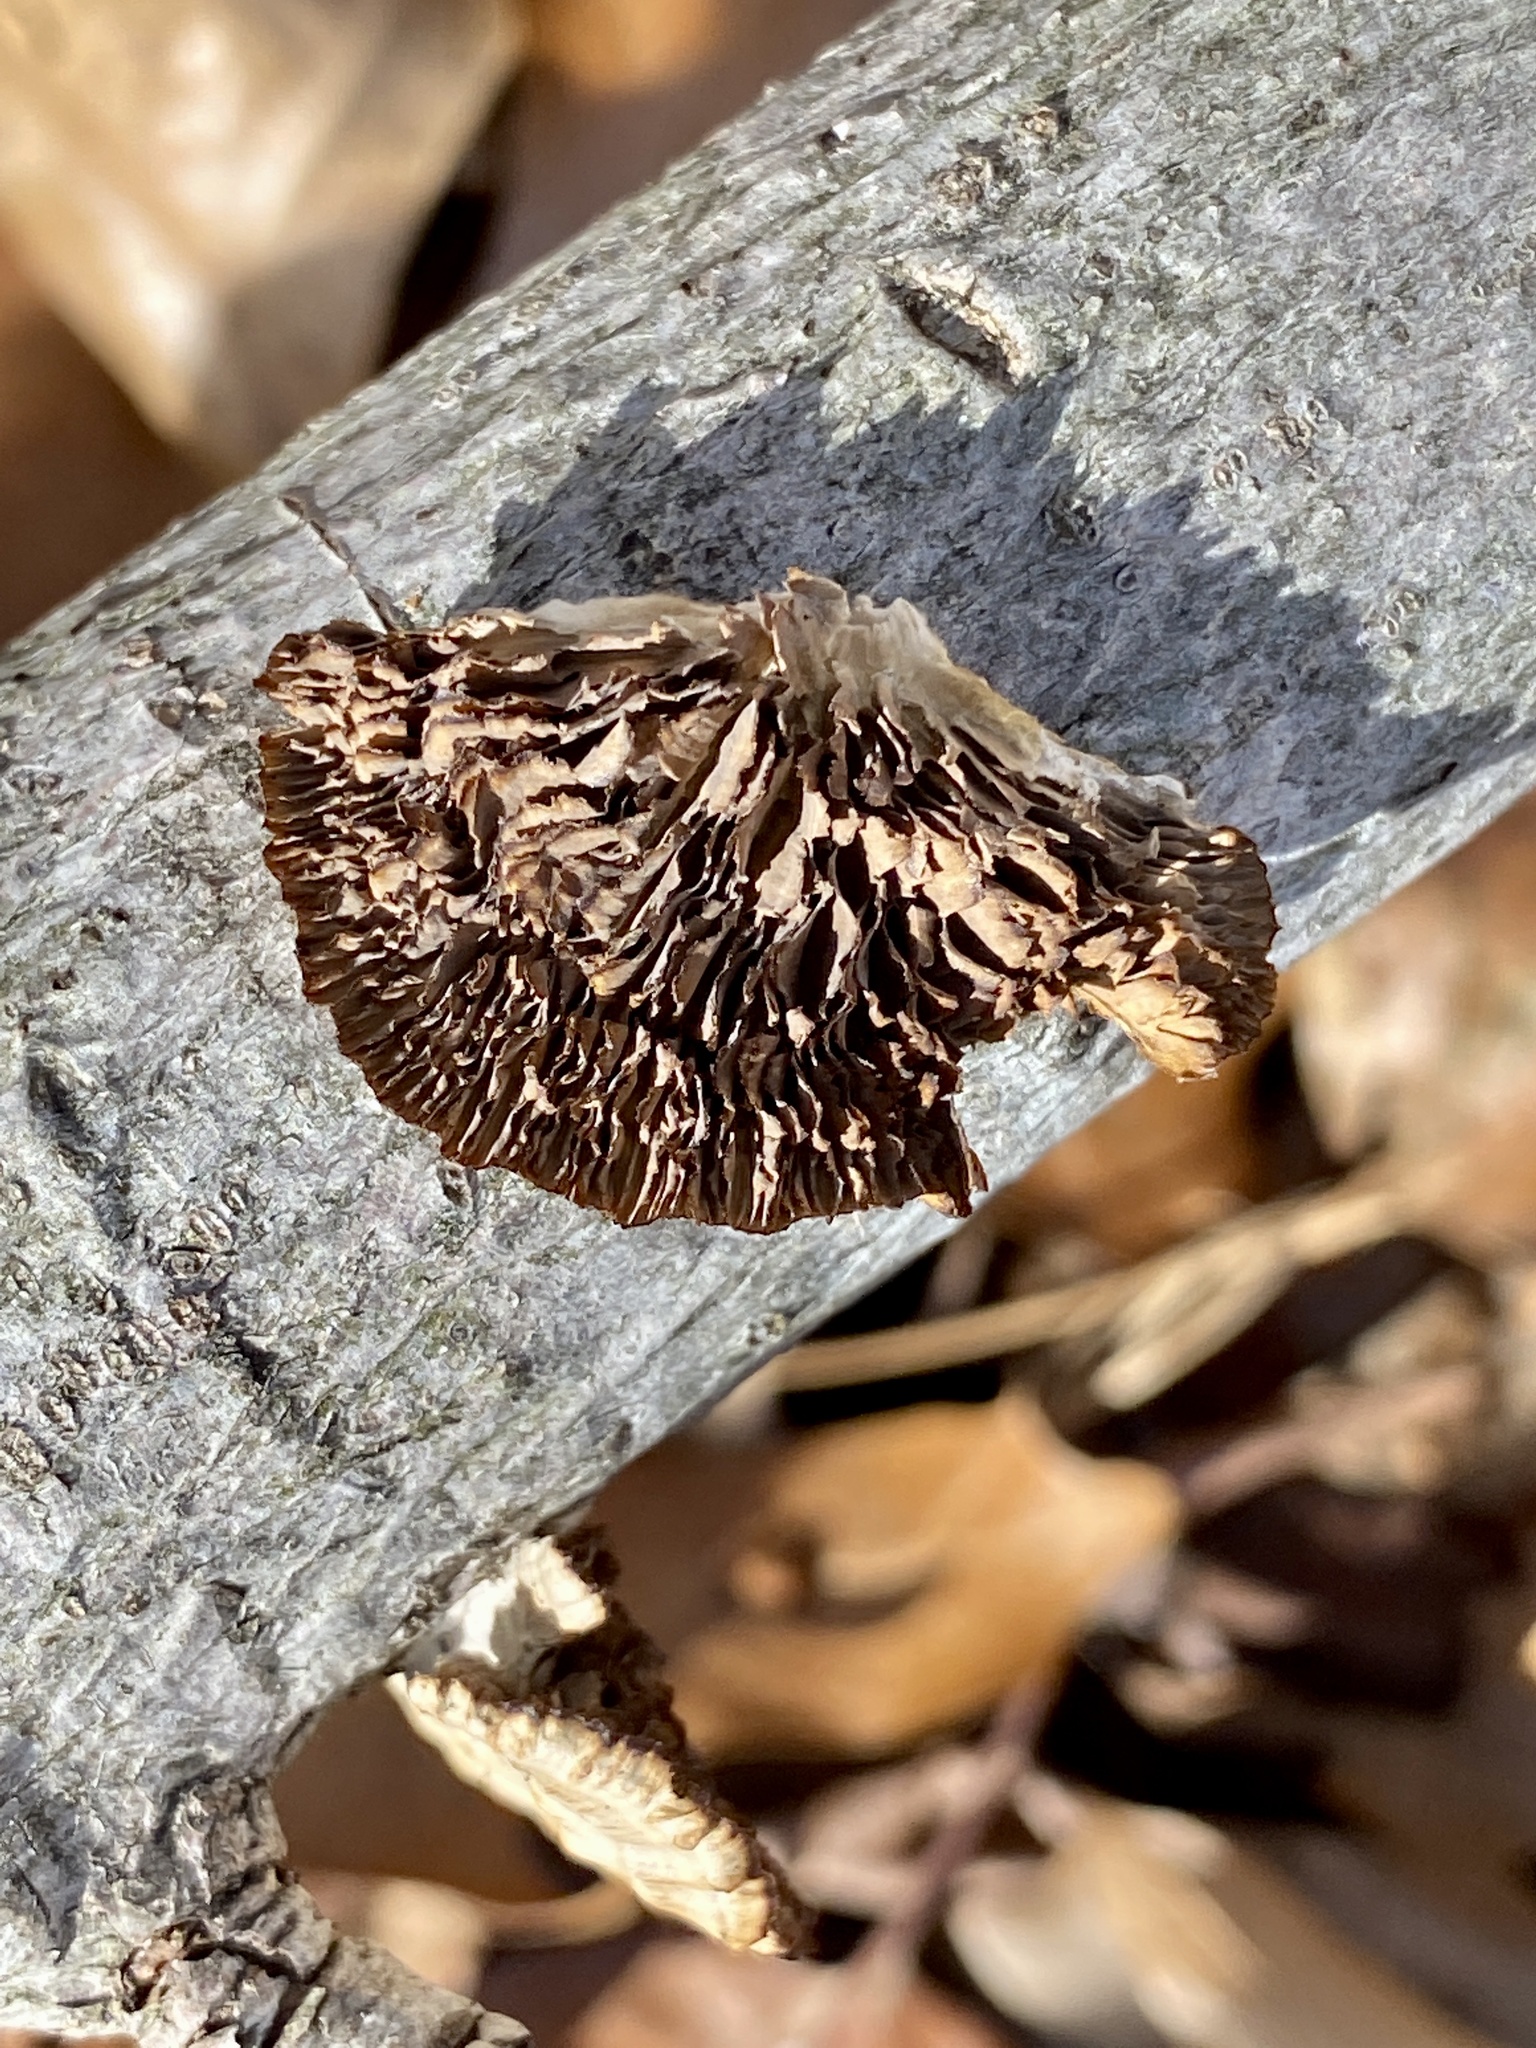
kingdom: Fungi
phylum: Basidiomycota
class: Agaricomycetes
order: Polyporales
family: Polyporaceae
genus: Daedaleopsis
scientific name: Daedaleopsis confragosa
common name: Blushing bracket
